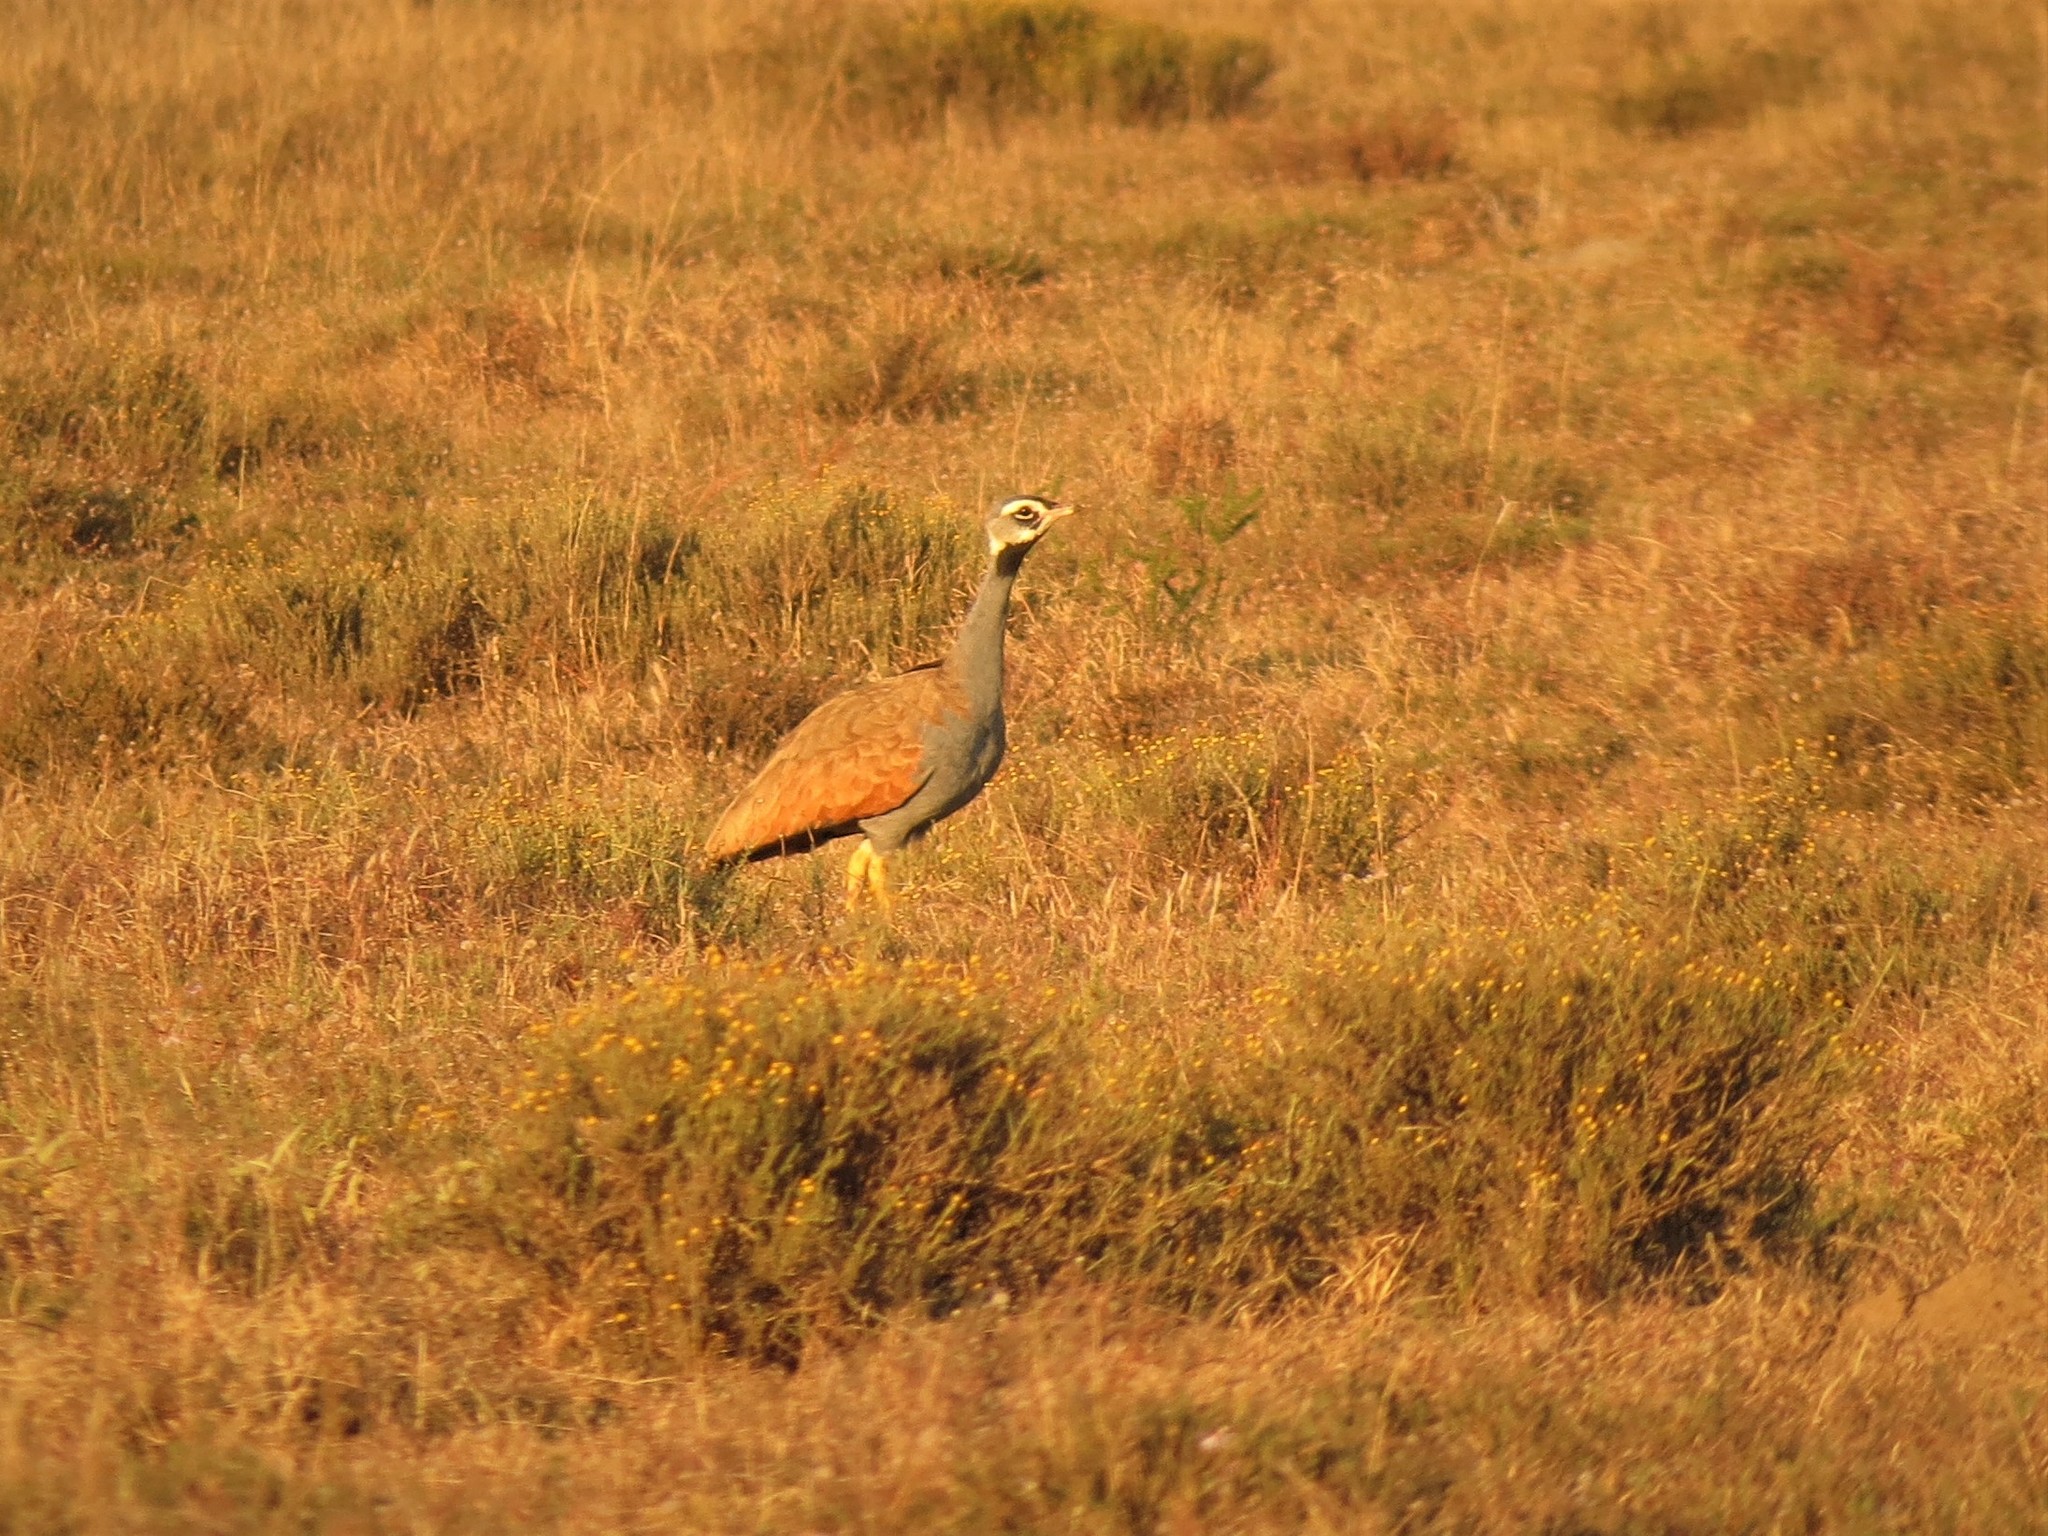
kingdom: Animalia
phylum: Chordata
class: Aves
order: Otidiformes
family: Otididae
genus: Eupodotis
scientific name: Eupodotis caerulescens
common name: Blue korhaan
